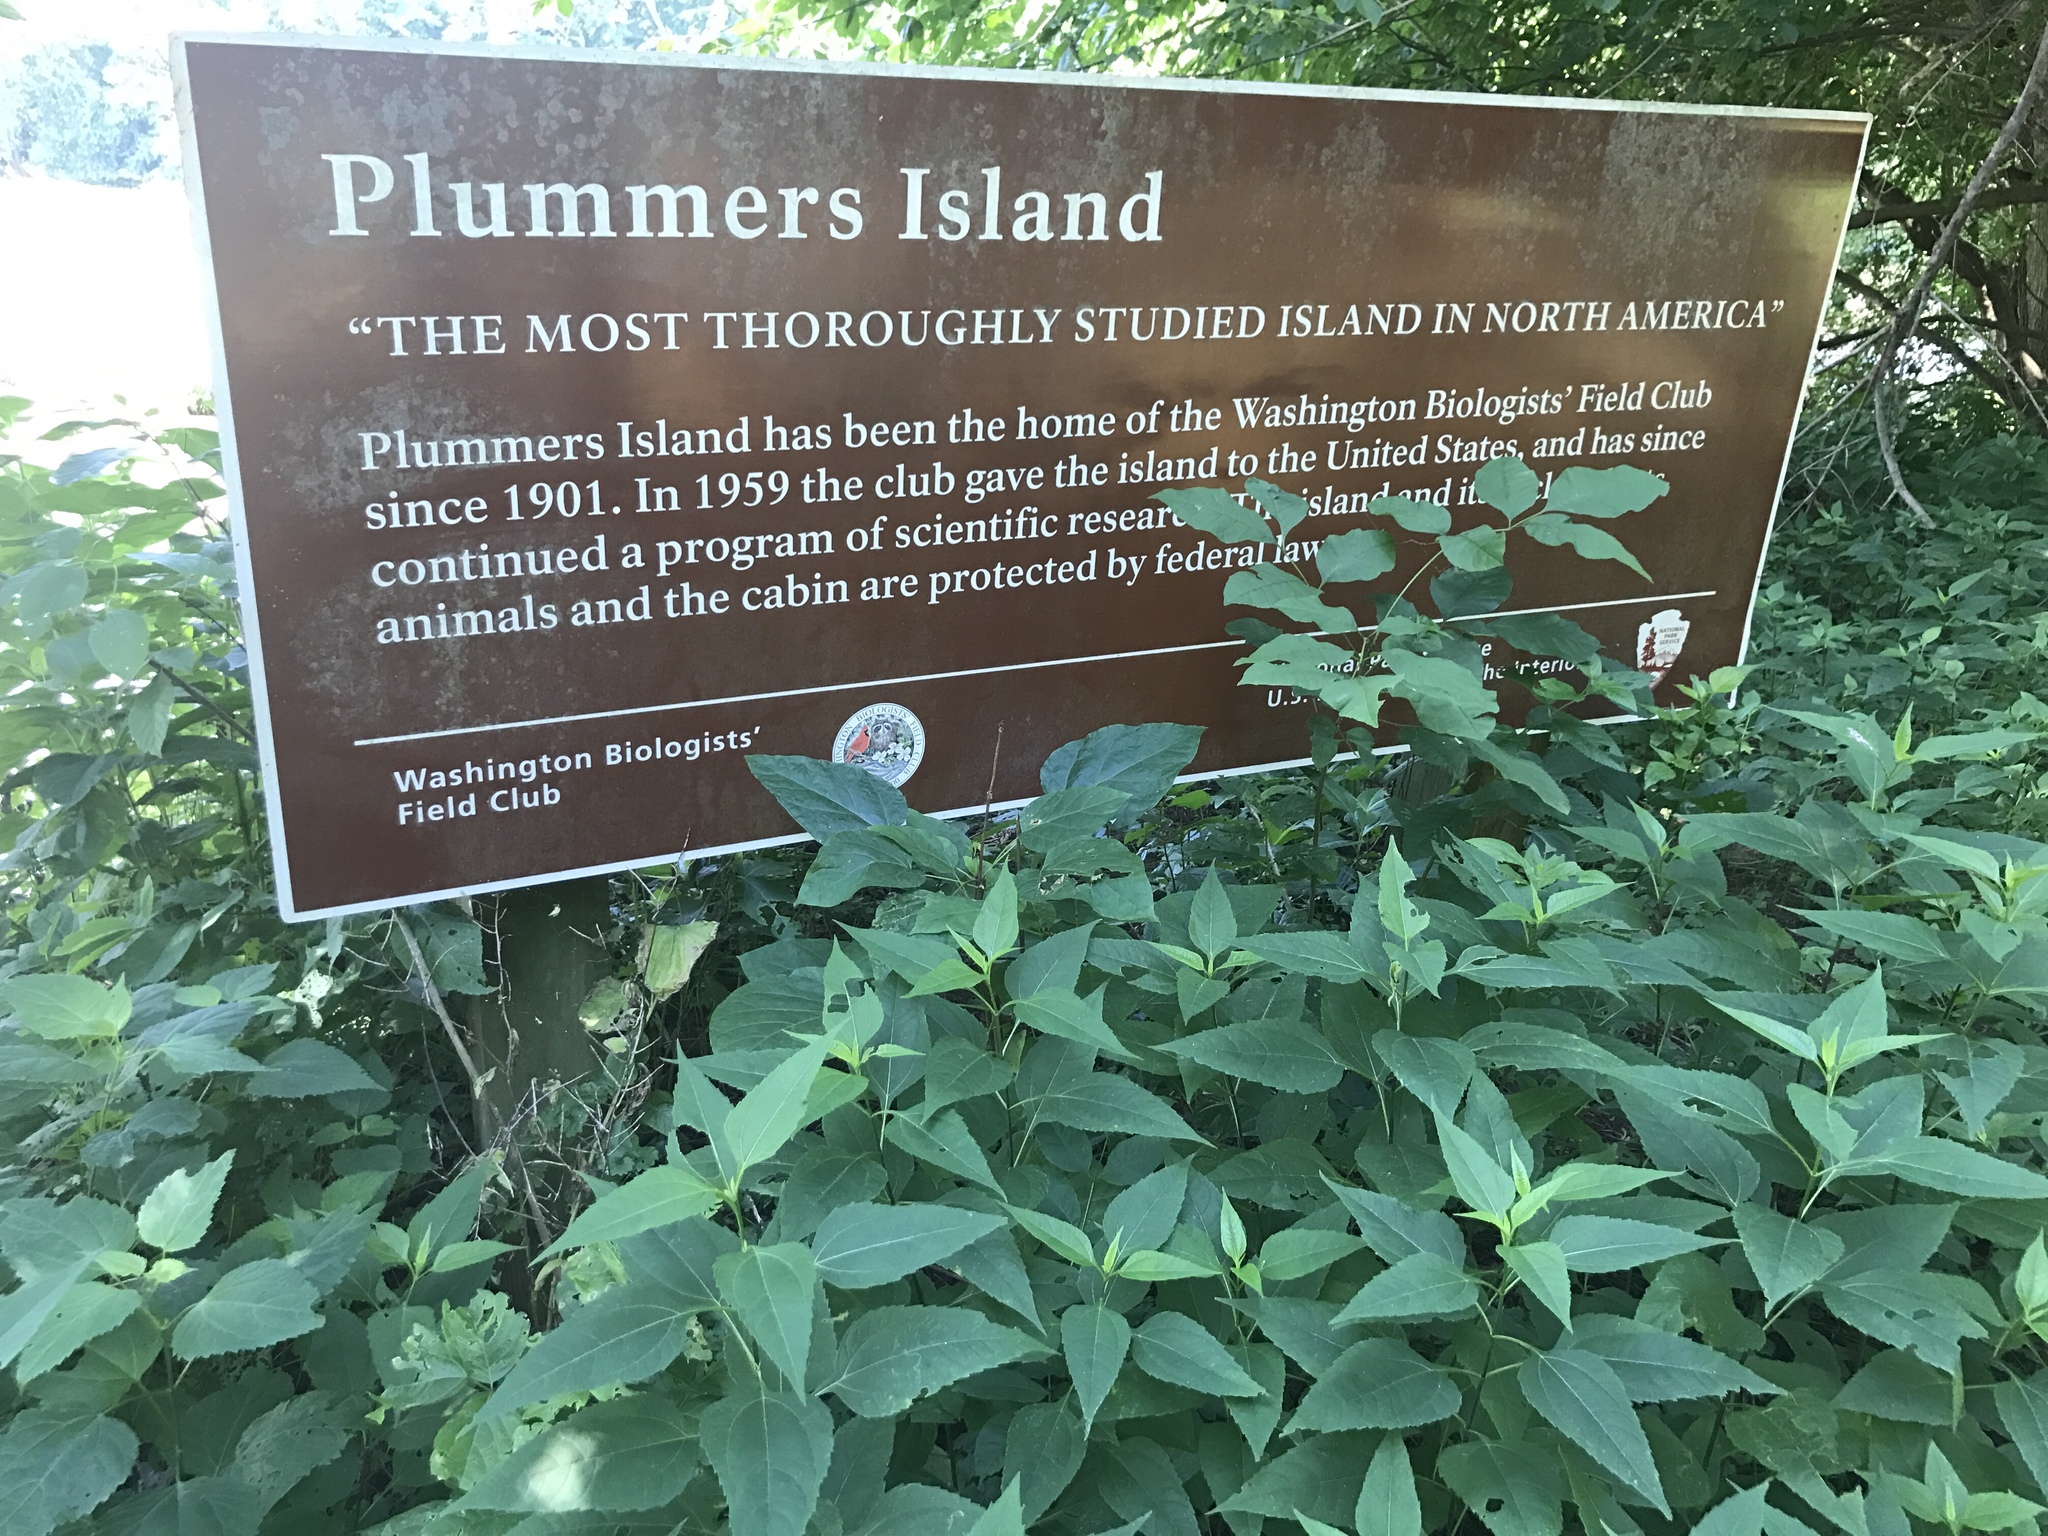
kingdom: Plantae
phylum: Tracheophyta
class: Magnoliopsida
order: Asterales
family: Asteraceae
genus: Verbesina
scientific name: Verbesina alternifolia
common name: Wingstem
